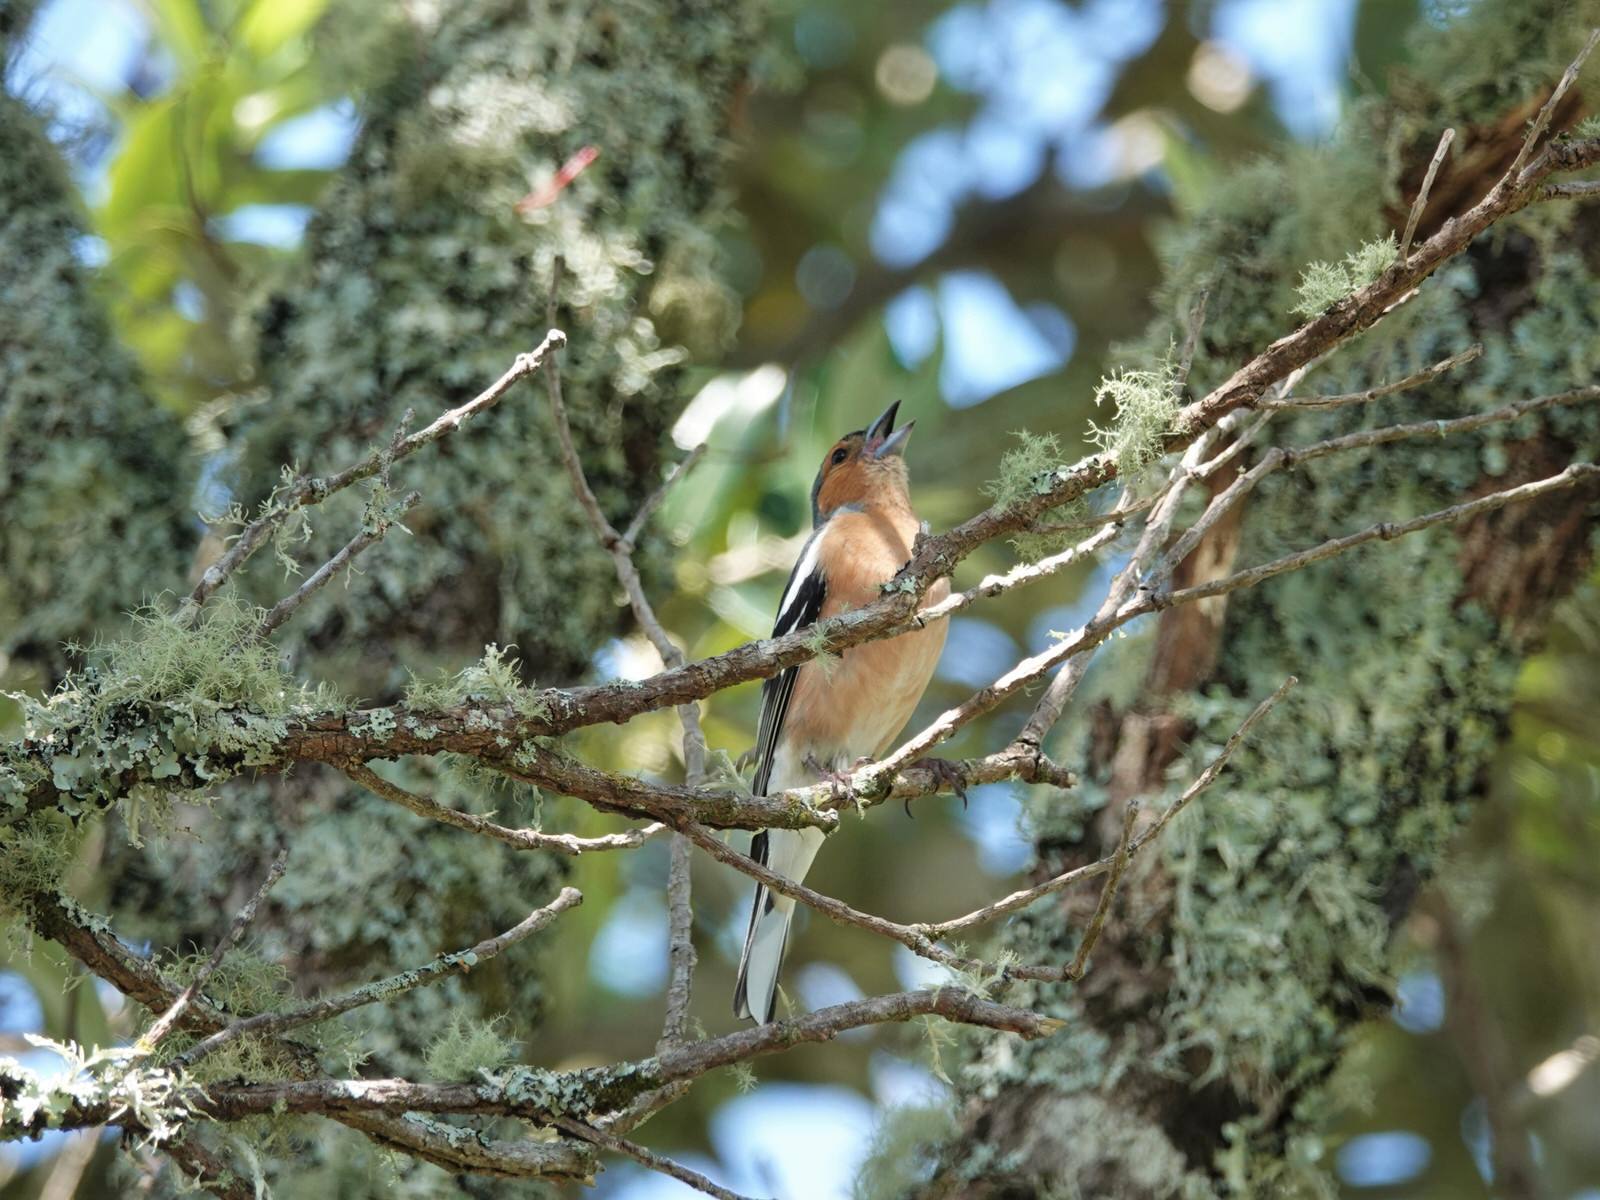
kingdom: Animalia
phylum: Chordata
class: Aves
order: Passeriformes
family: Fringillidae
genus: Fringilla
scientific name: Fringilla coelebs
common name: Common chaffinch
